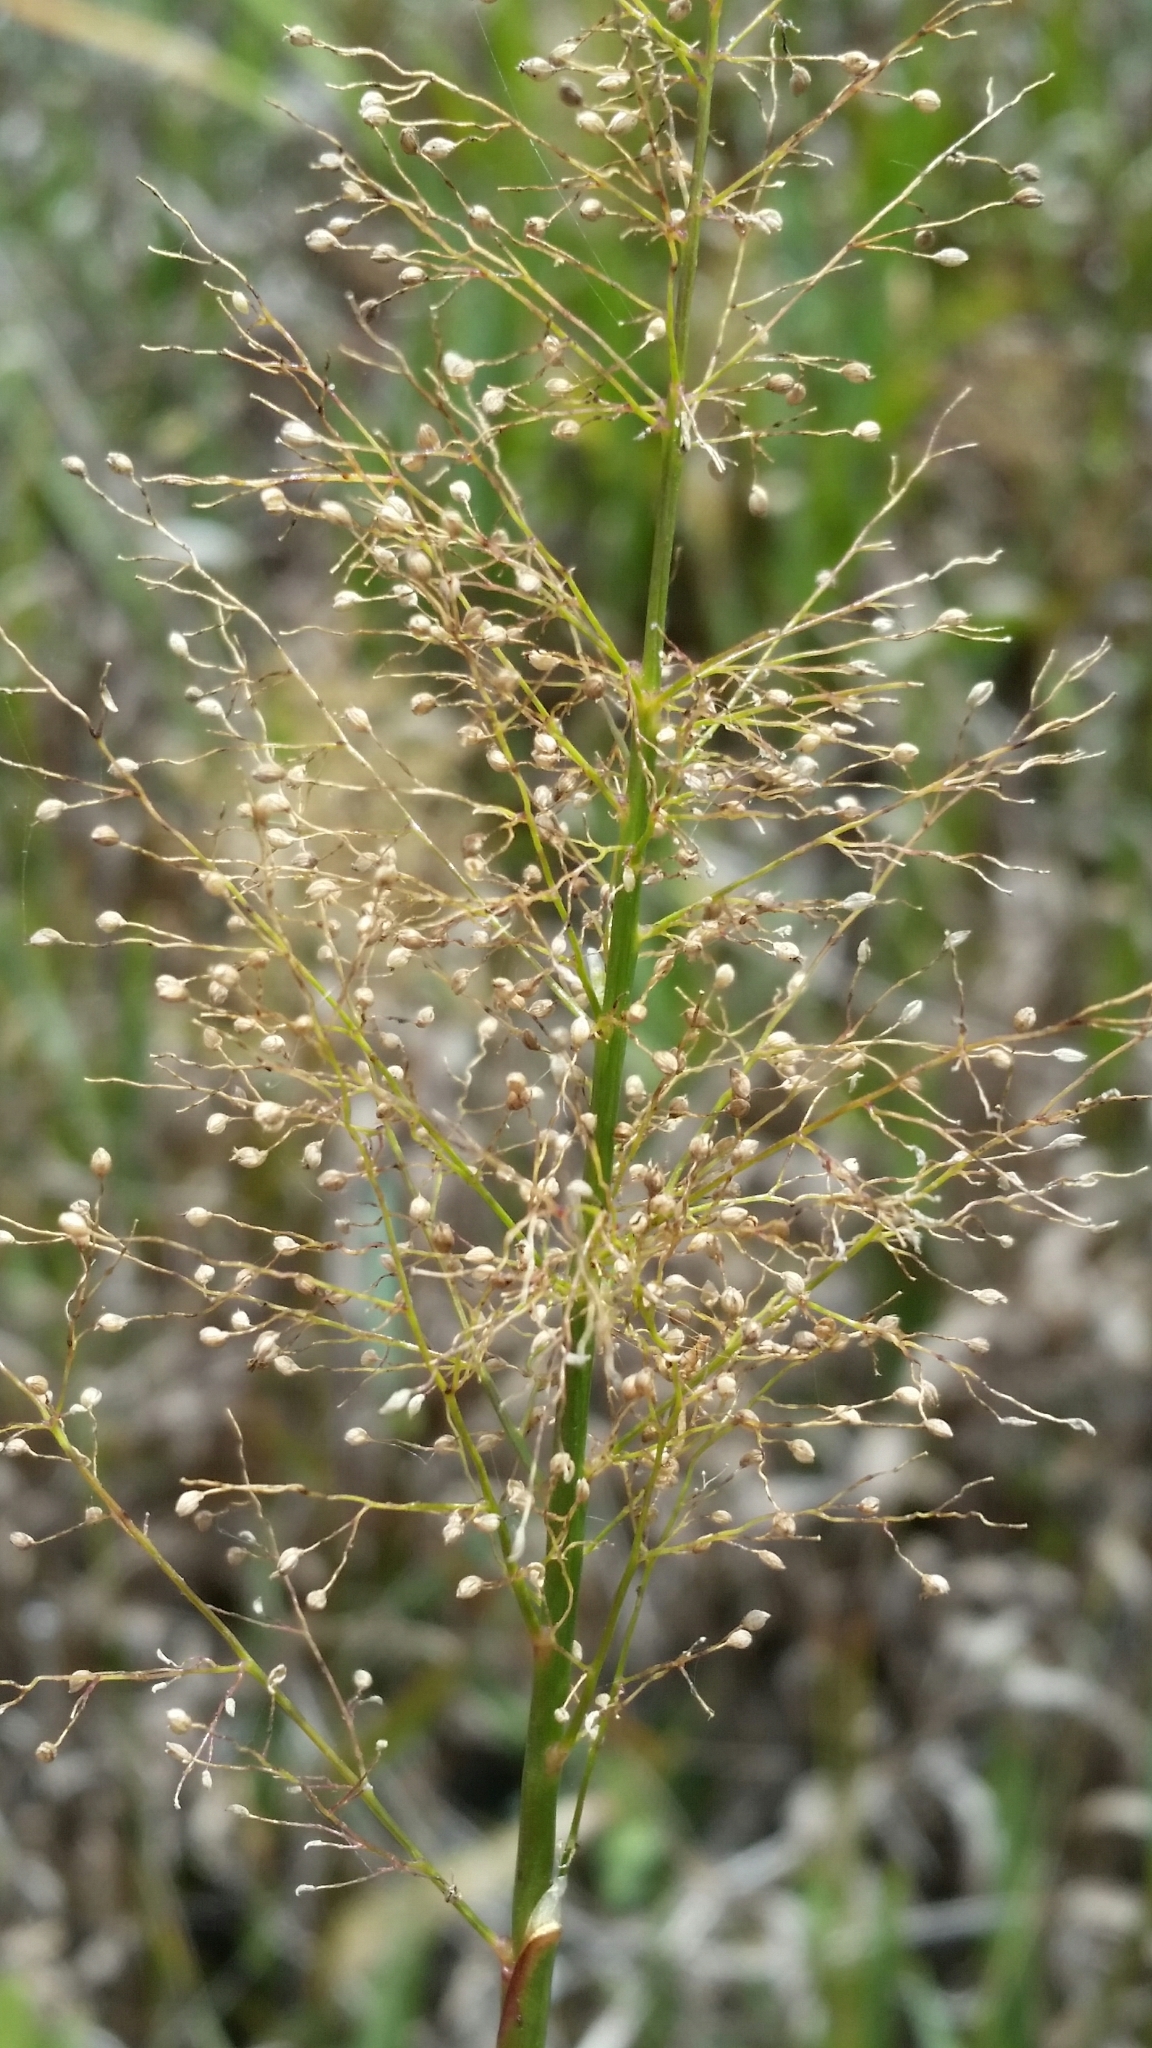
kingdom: Plantae
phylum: Tracheophyta
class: Liliopsida
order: Poales
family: Poaceae
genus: Dichanthelium
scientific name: Dichanthelium erectifolium
